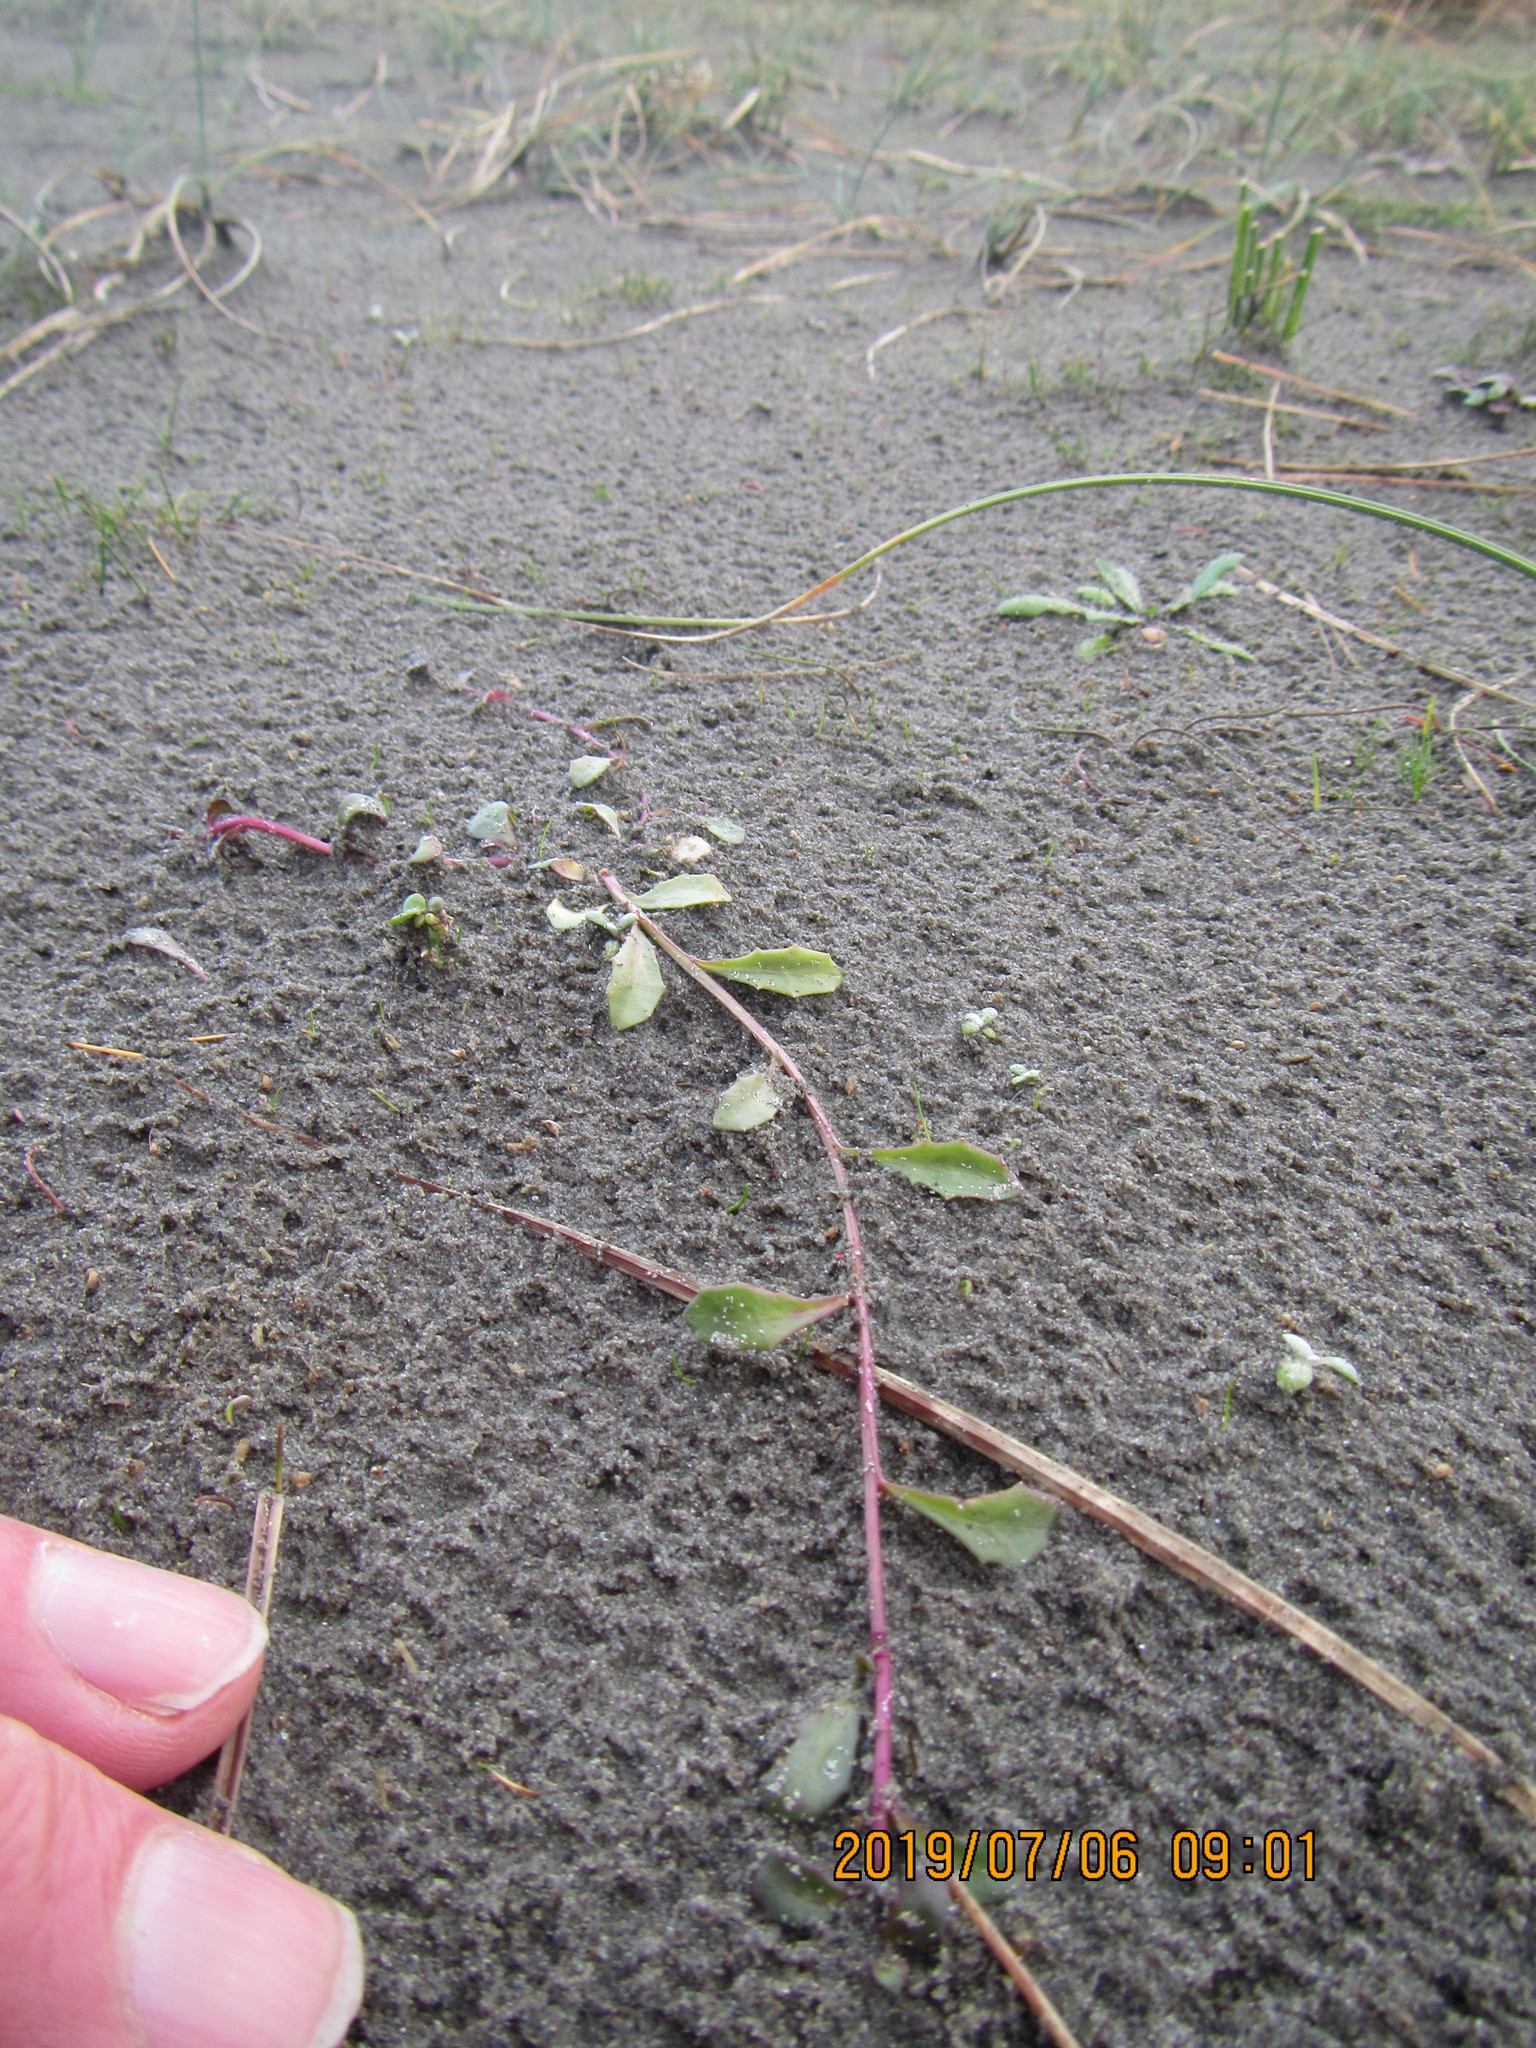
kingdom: Plantae
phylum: Tracheophyta
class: Magnoliopsida
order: Asterales
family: Campanulaceae
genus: Lobelia
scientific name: Lobelia anceps
